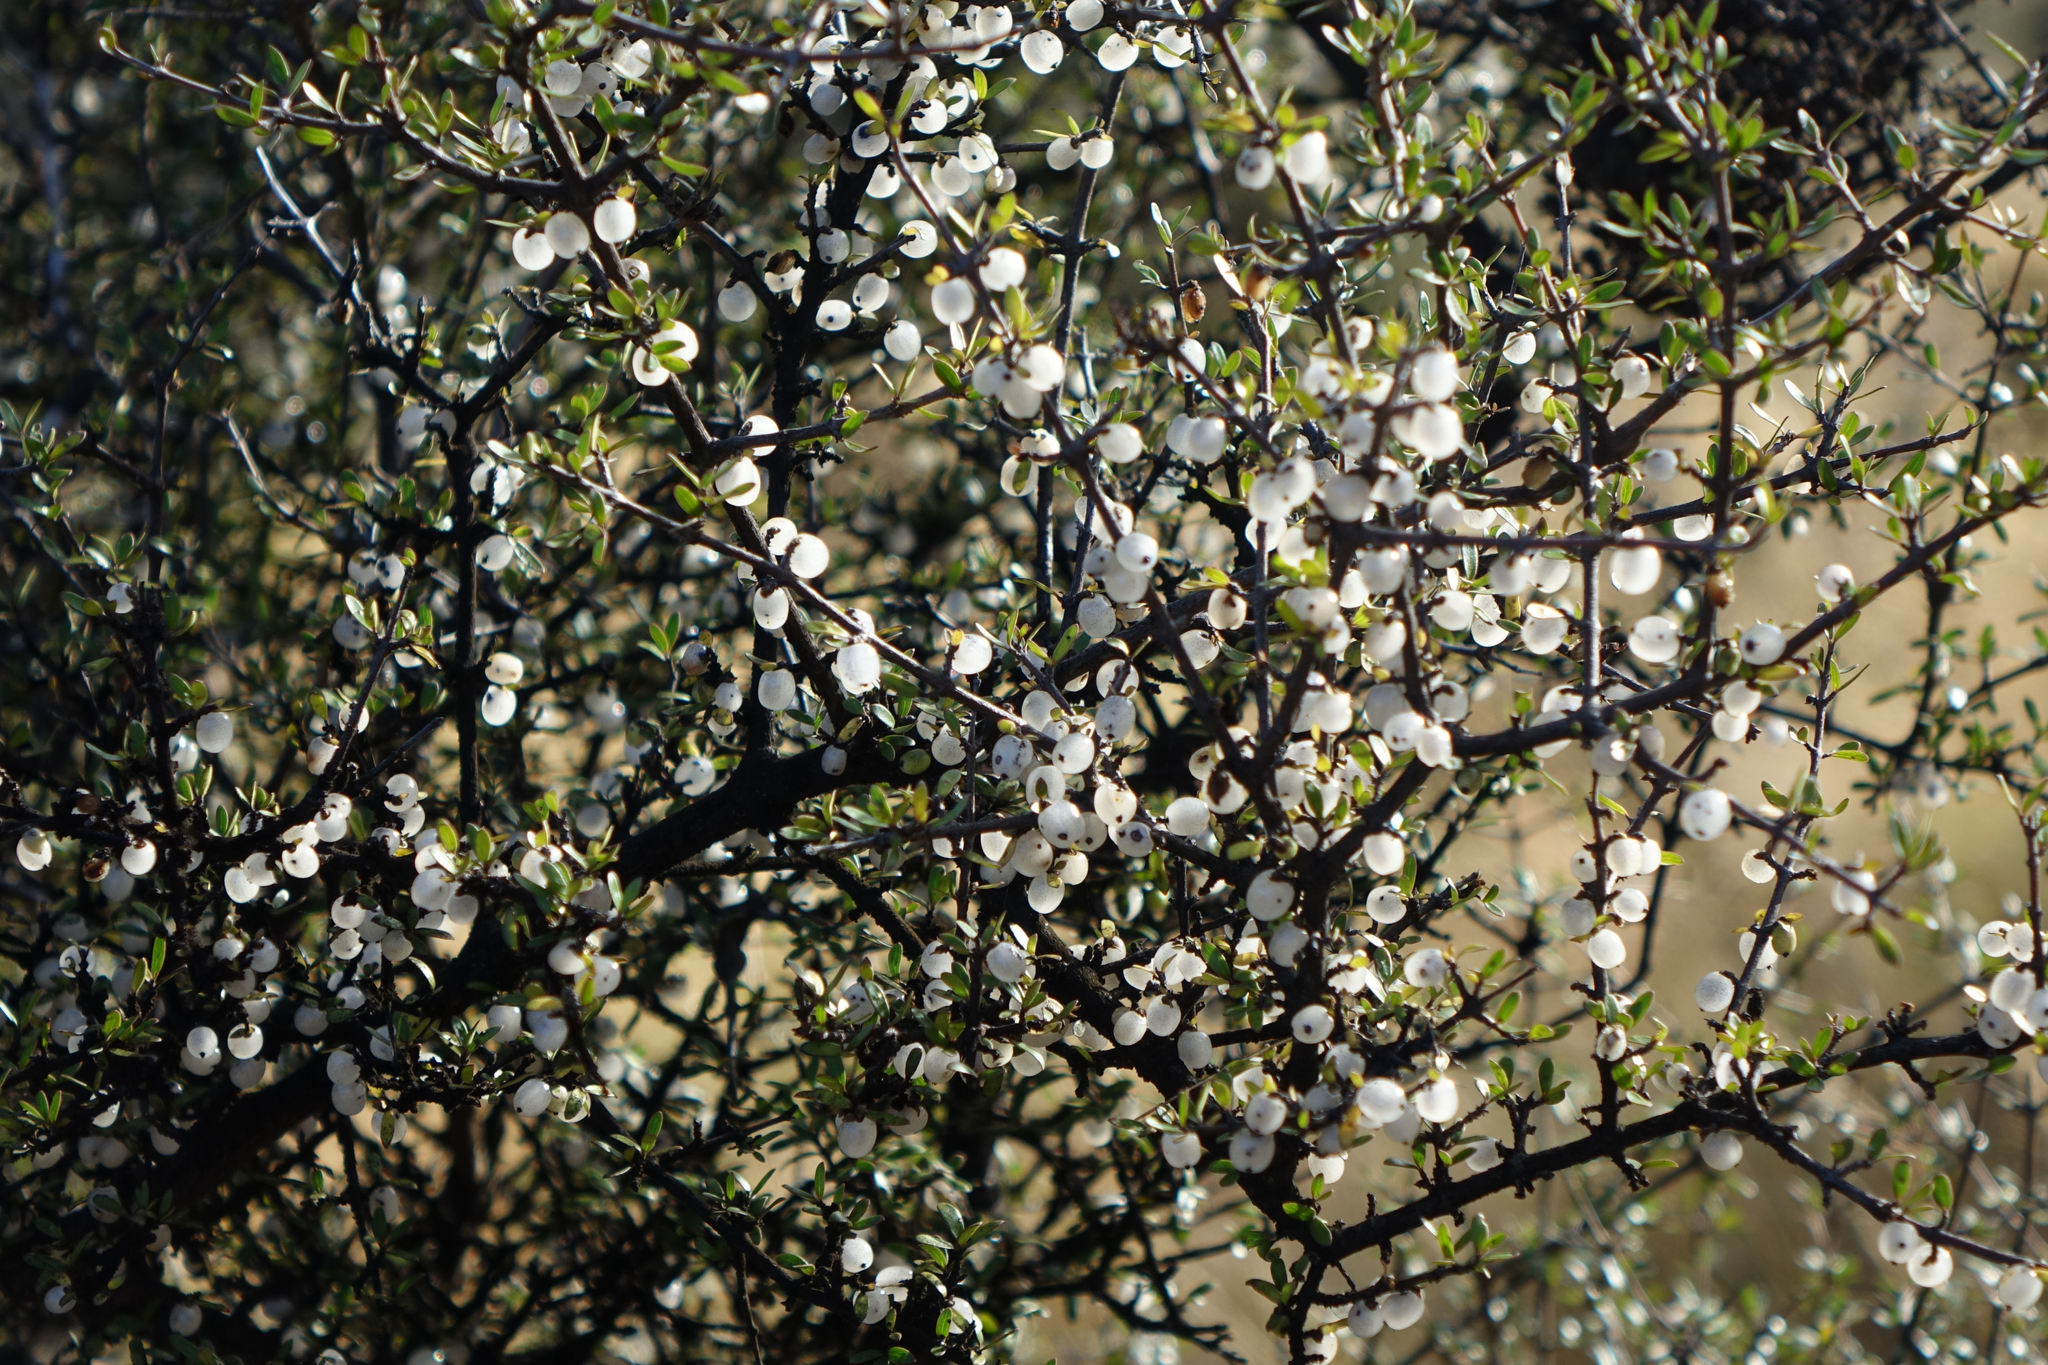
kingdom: Plantae
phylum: Tracheophyta
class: Magnoliopsida
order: Gentianales
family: Rubiaceae
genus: Coprosma
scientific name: Coprosma propinqua
